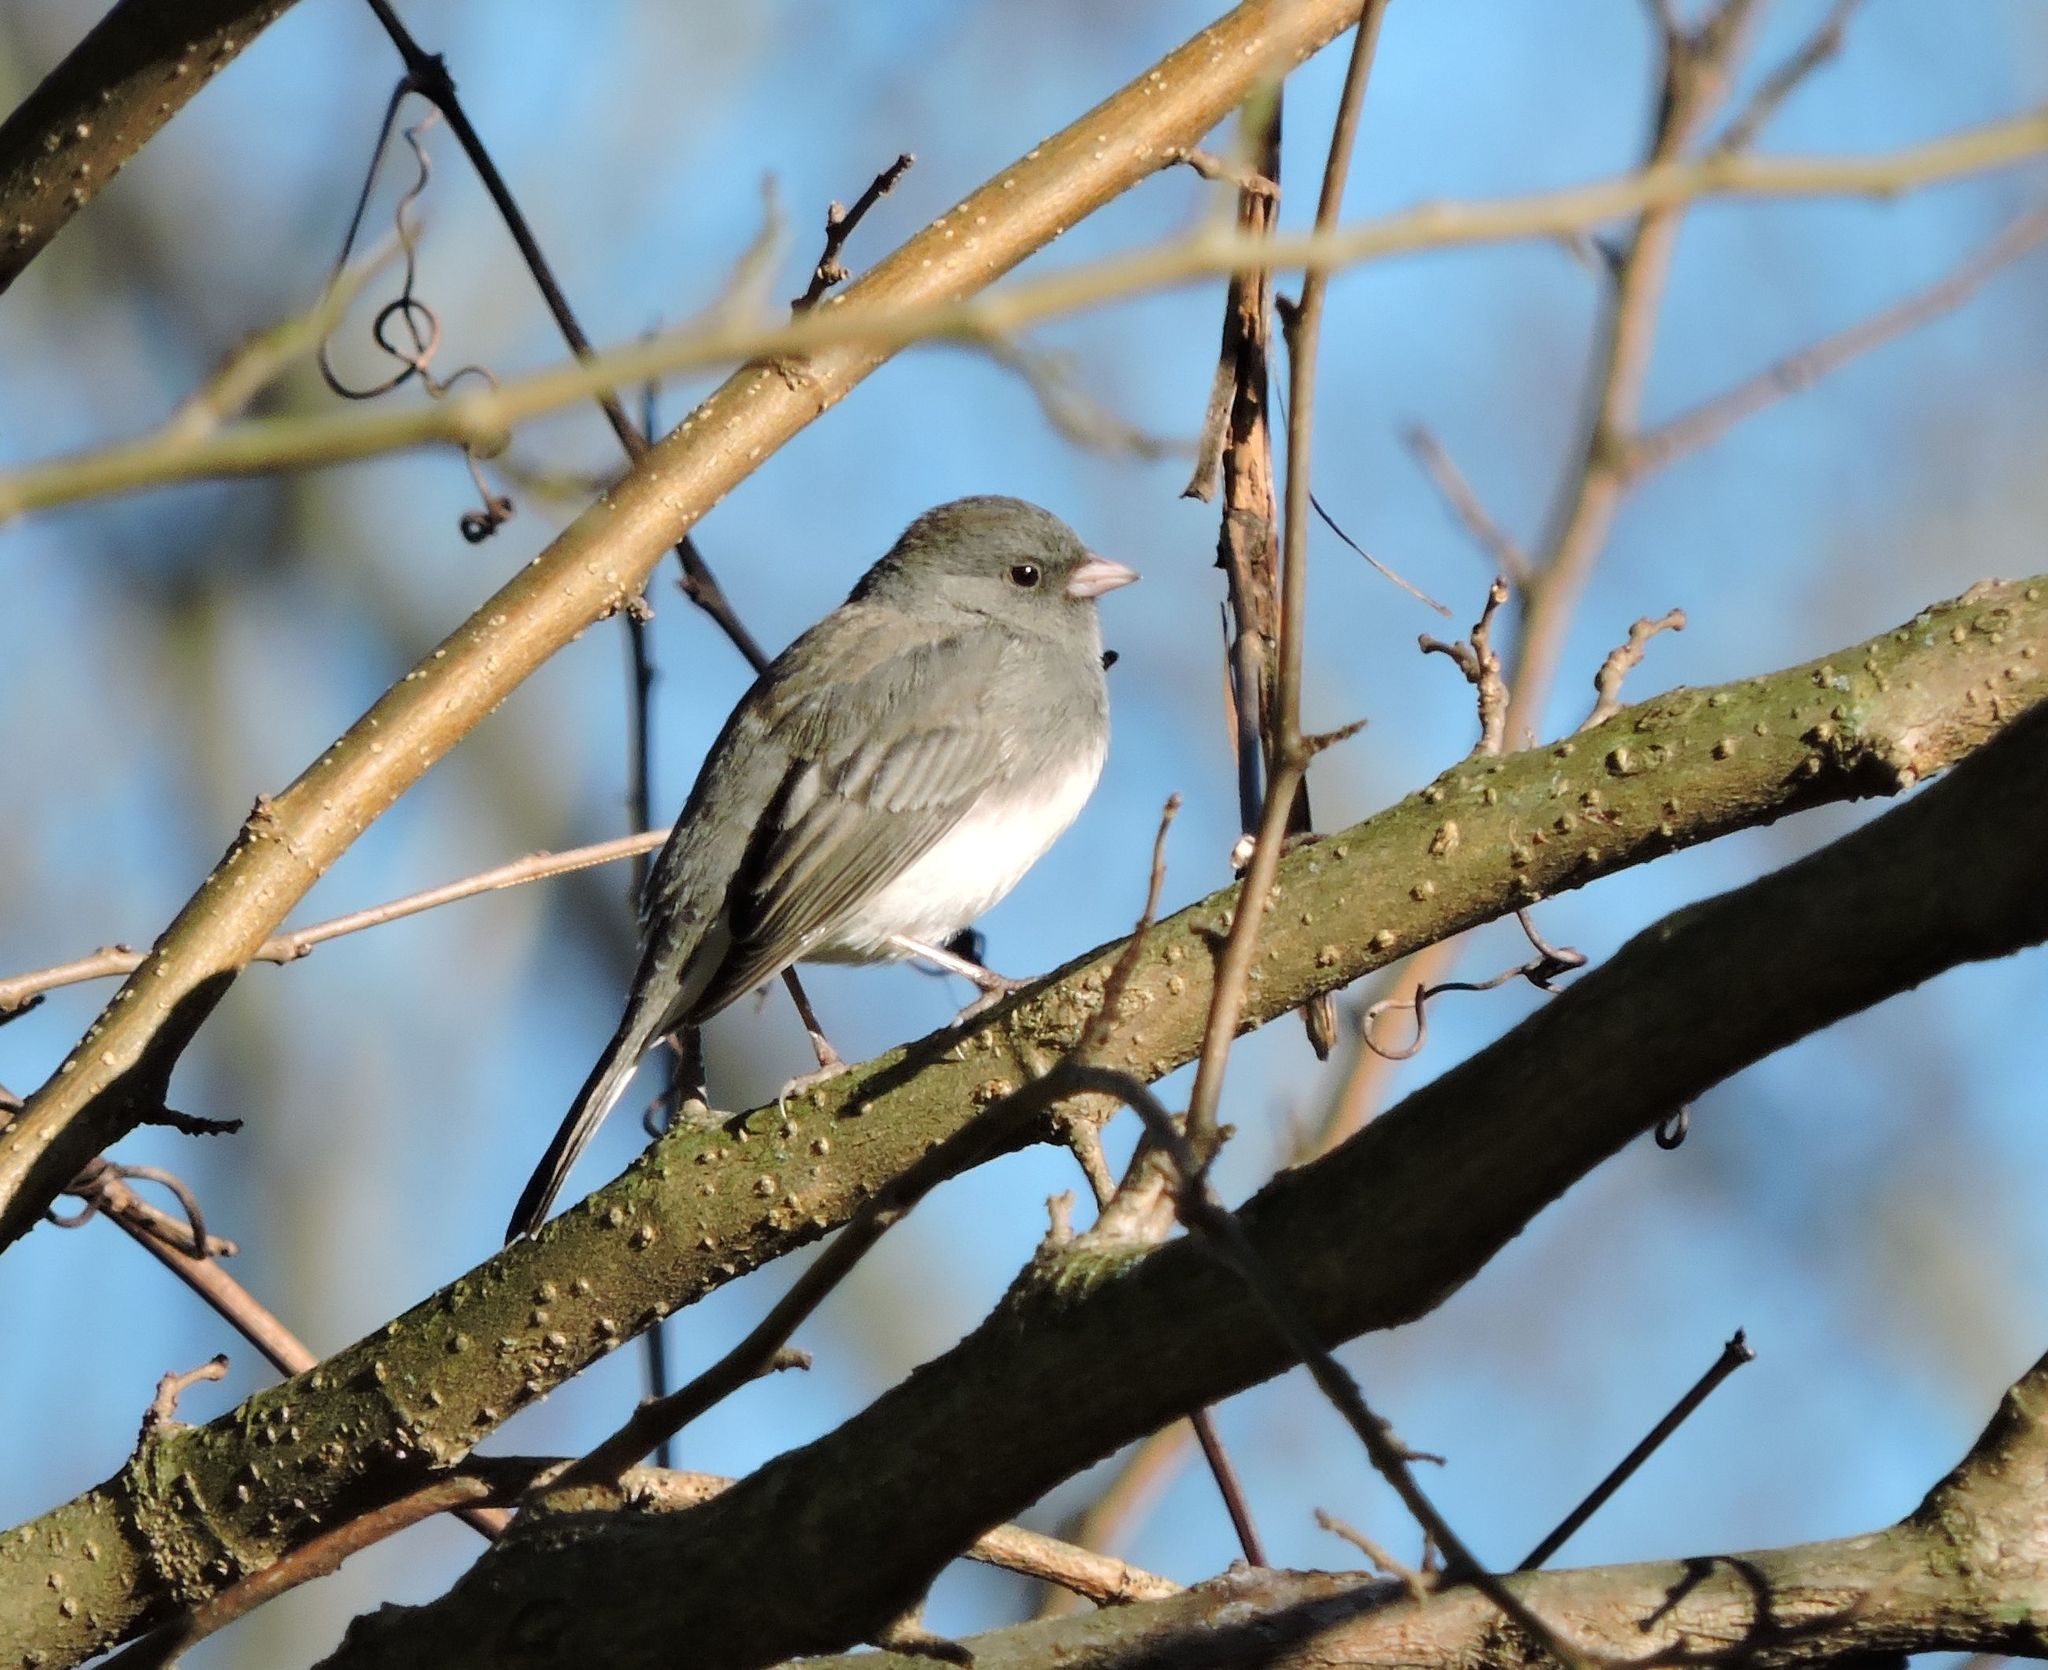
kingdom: Animalia
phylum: Chordata
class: Aves
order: Passeriformes
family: Passerellidae
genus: Junco
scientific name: Junco hyemalis
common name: Dark-eyed junco
